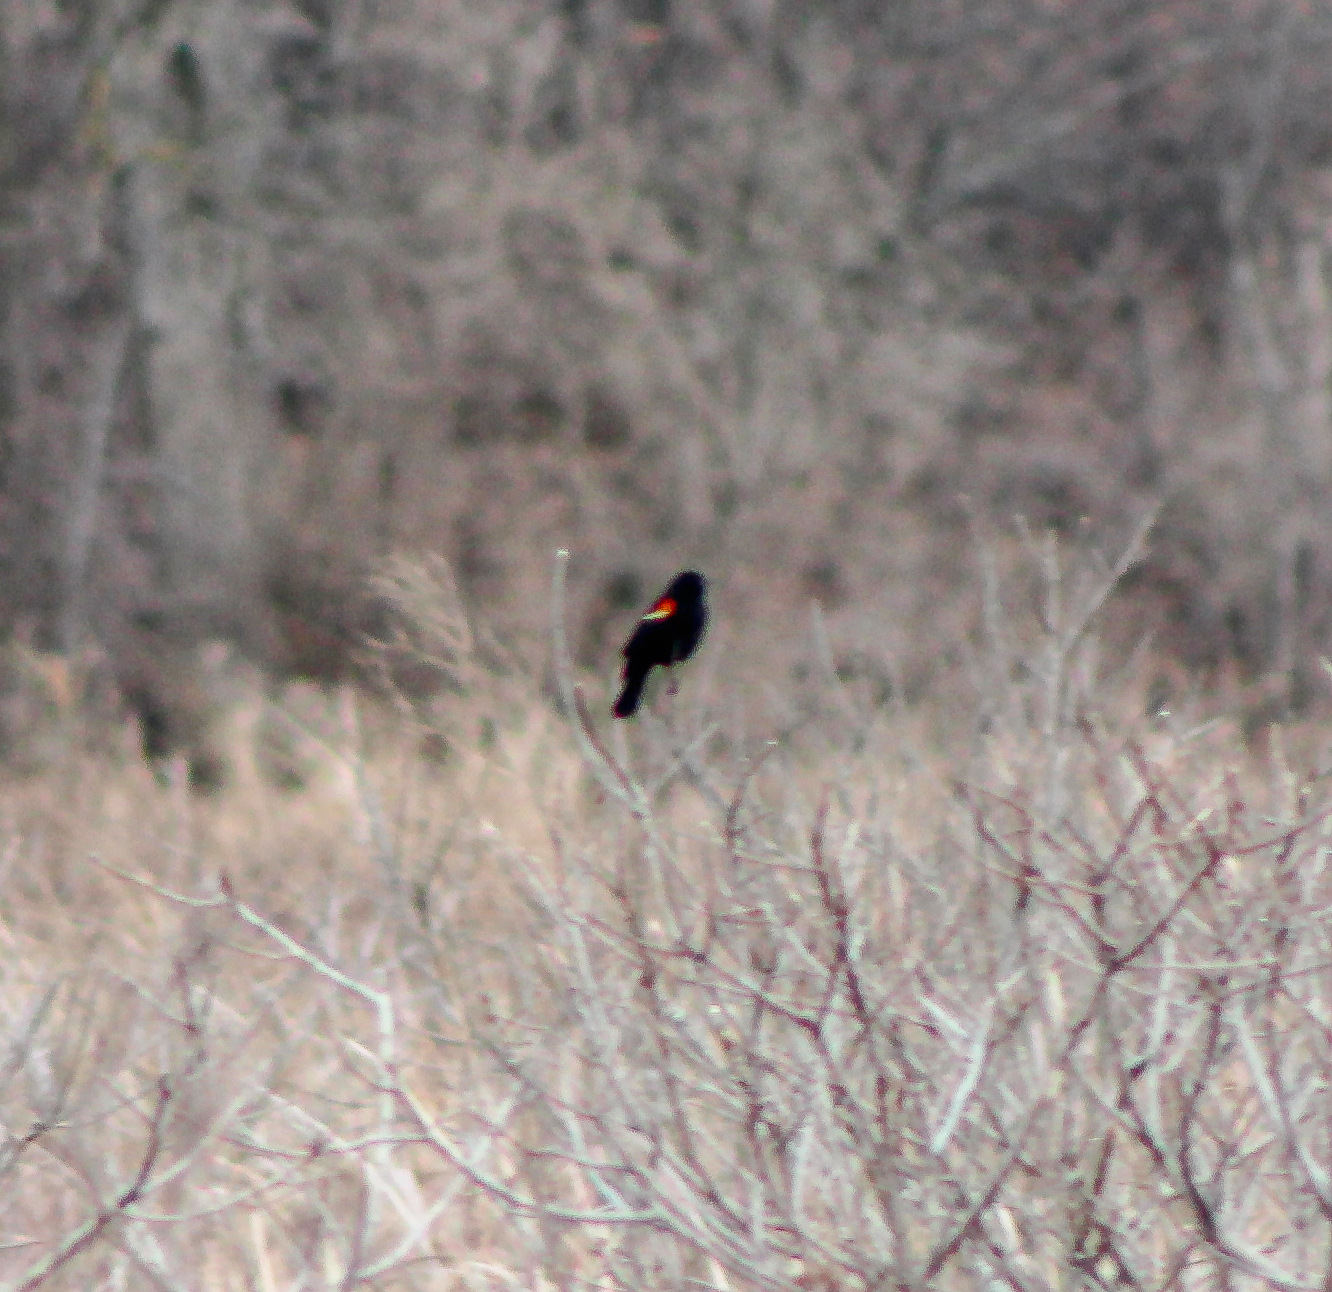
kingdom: Animalia
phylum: Chordata
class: Aves
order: Passeriformes
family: Icteridae
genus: Agelaius
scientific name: Agelaius phoeniceus
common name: Red-winged blackbird
